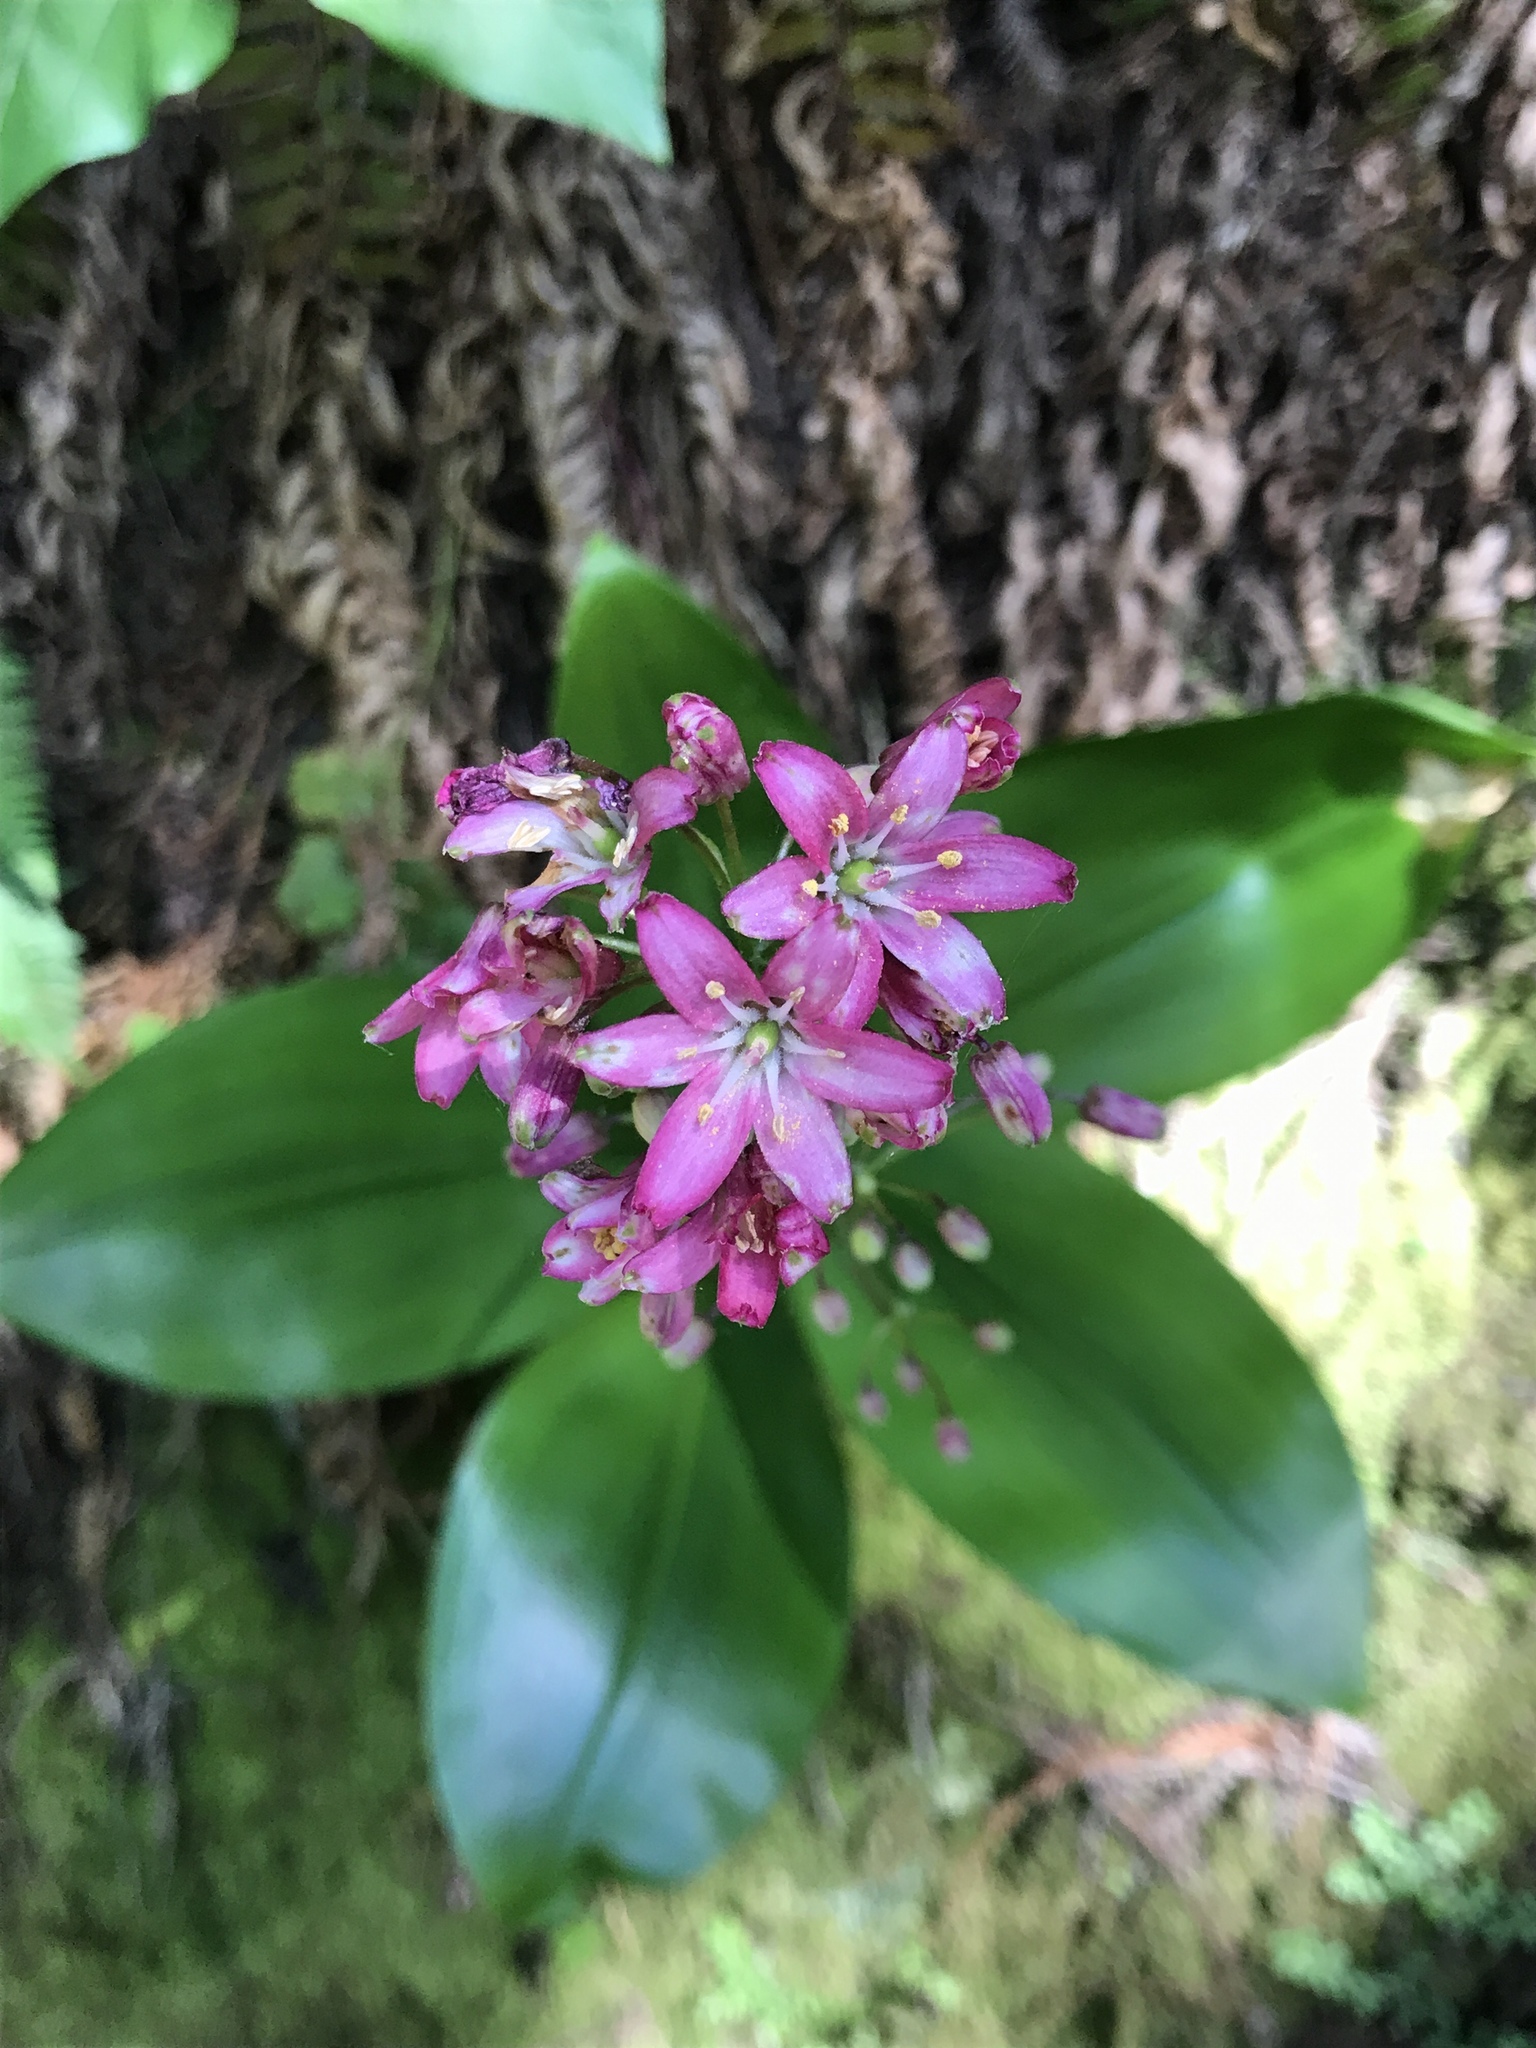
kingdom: Plantae
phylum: Tracheophyta
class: Liliopsida
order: Liliales
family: Liliaceae
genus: Clintonia
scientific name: Clintonia andrewsiana
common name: Red clintonia
